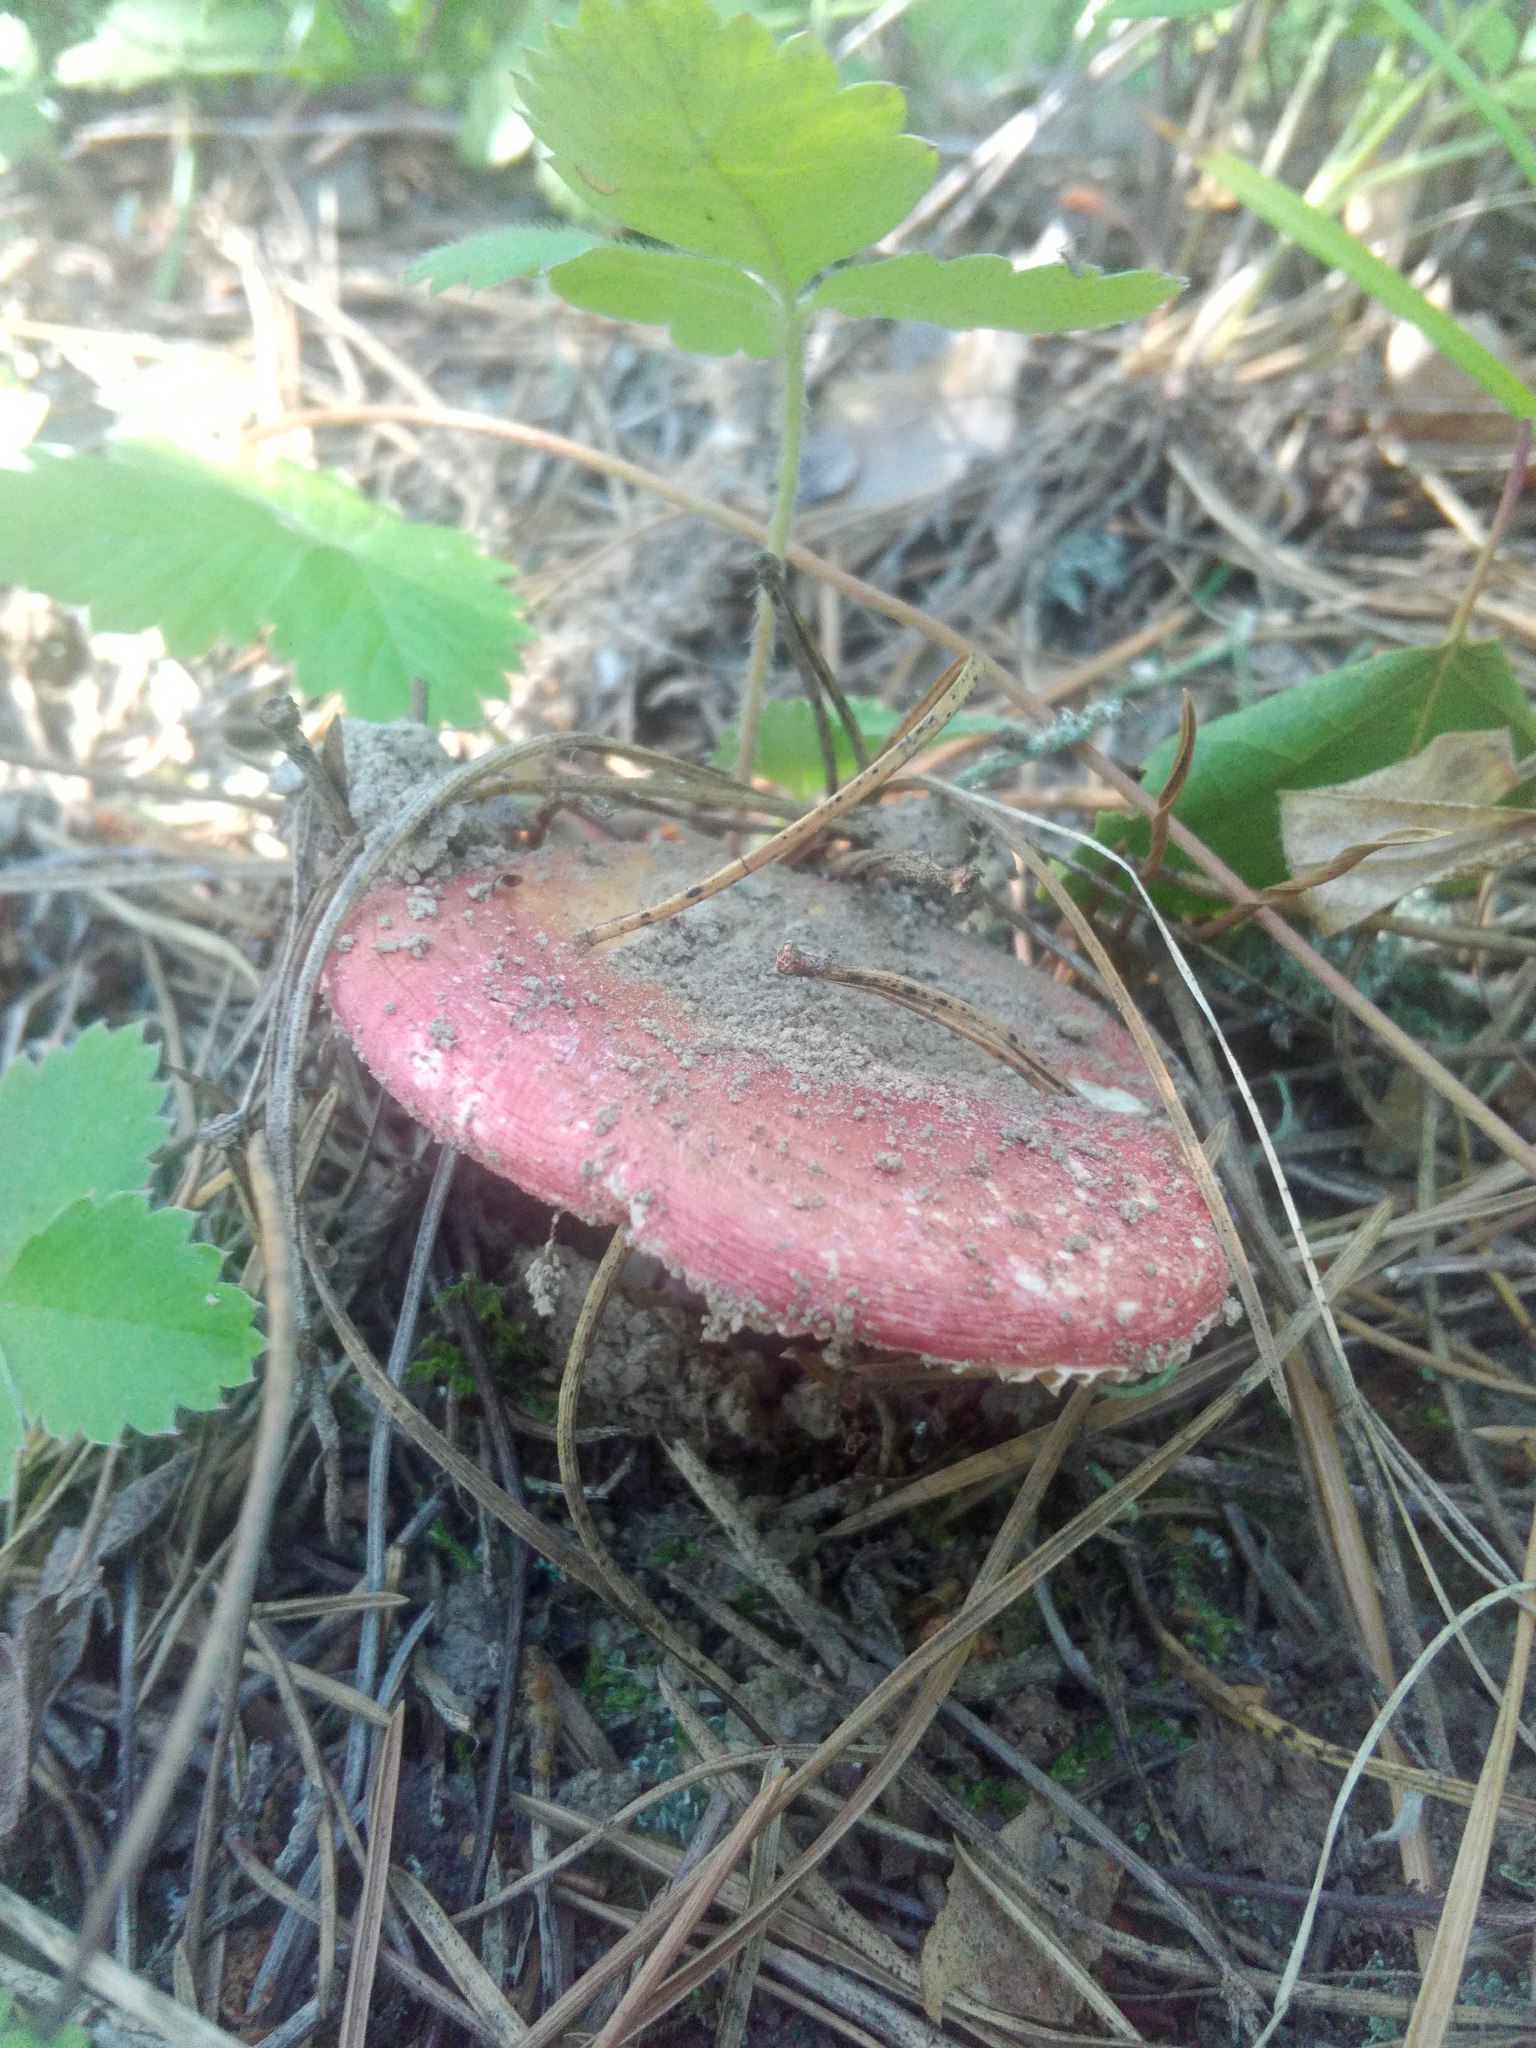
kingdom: Fungi
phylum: Basidiomycota
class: Agaricomycetes
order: Russulales
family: Russulaceae
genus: Russula
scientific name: Russula
